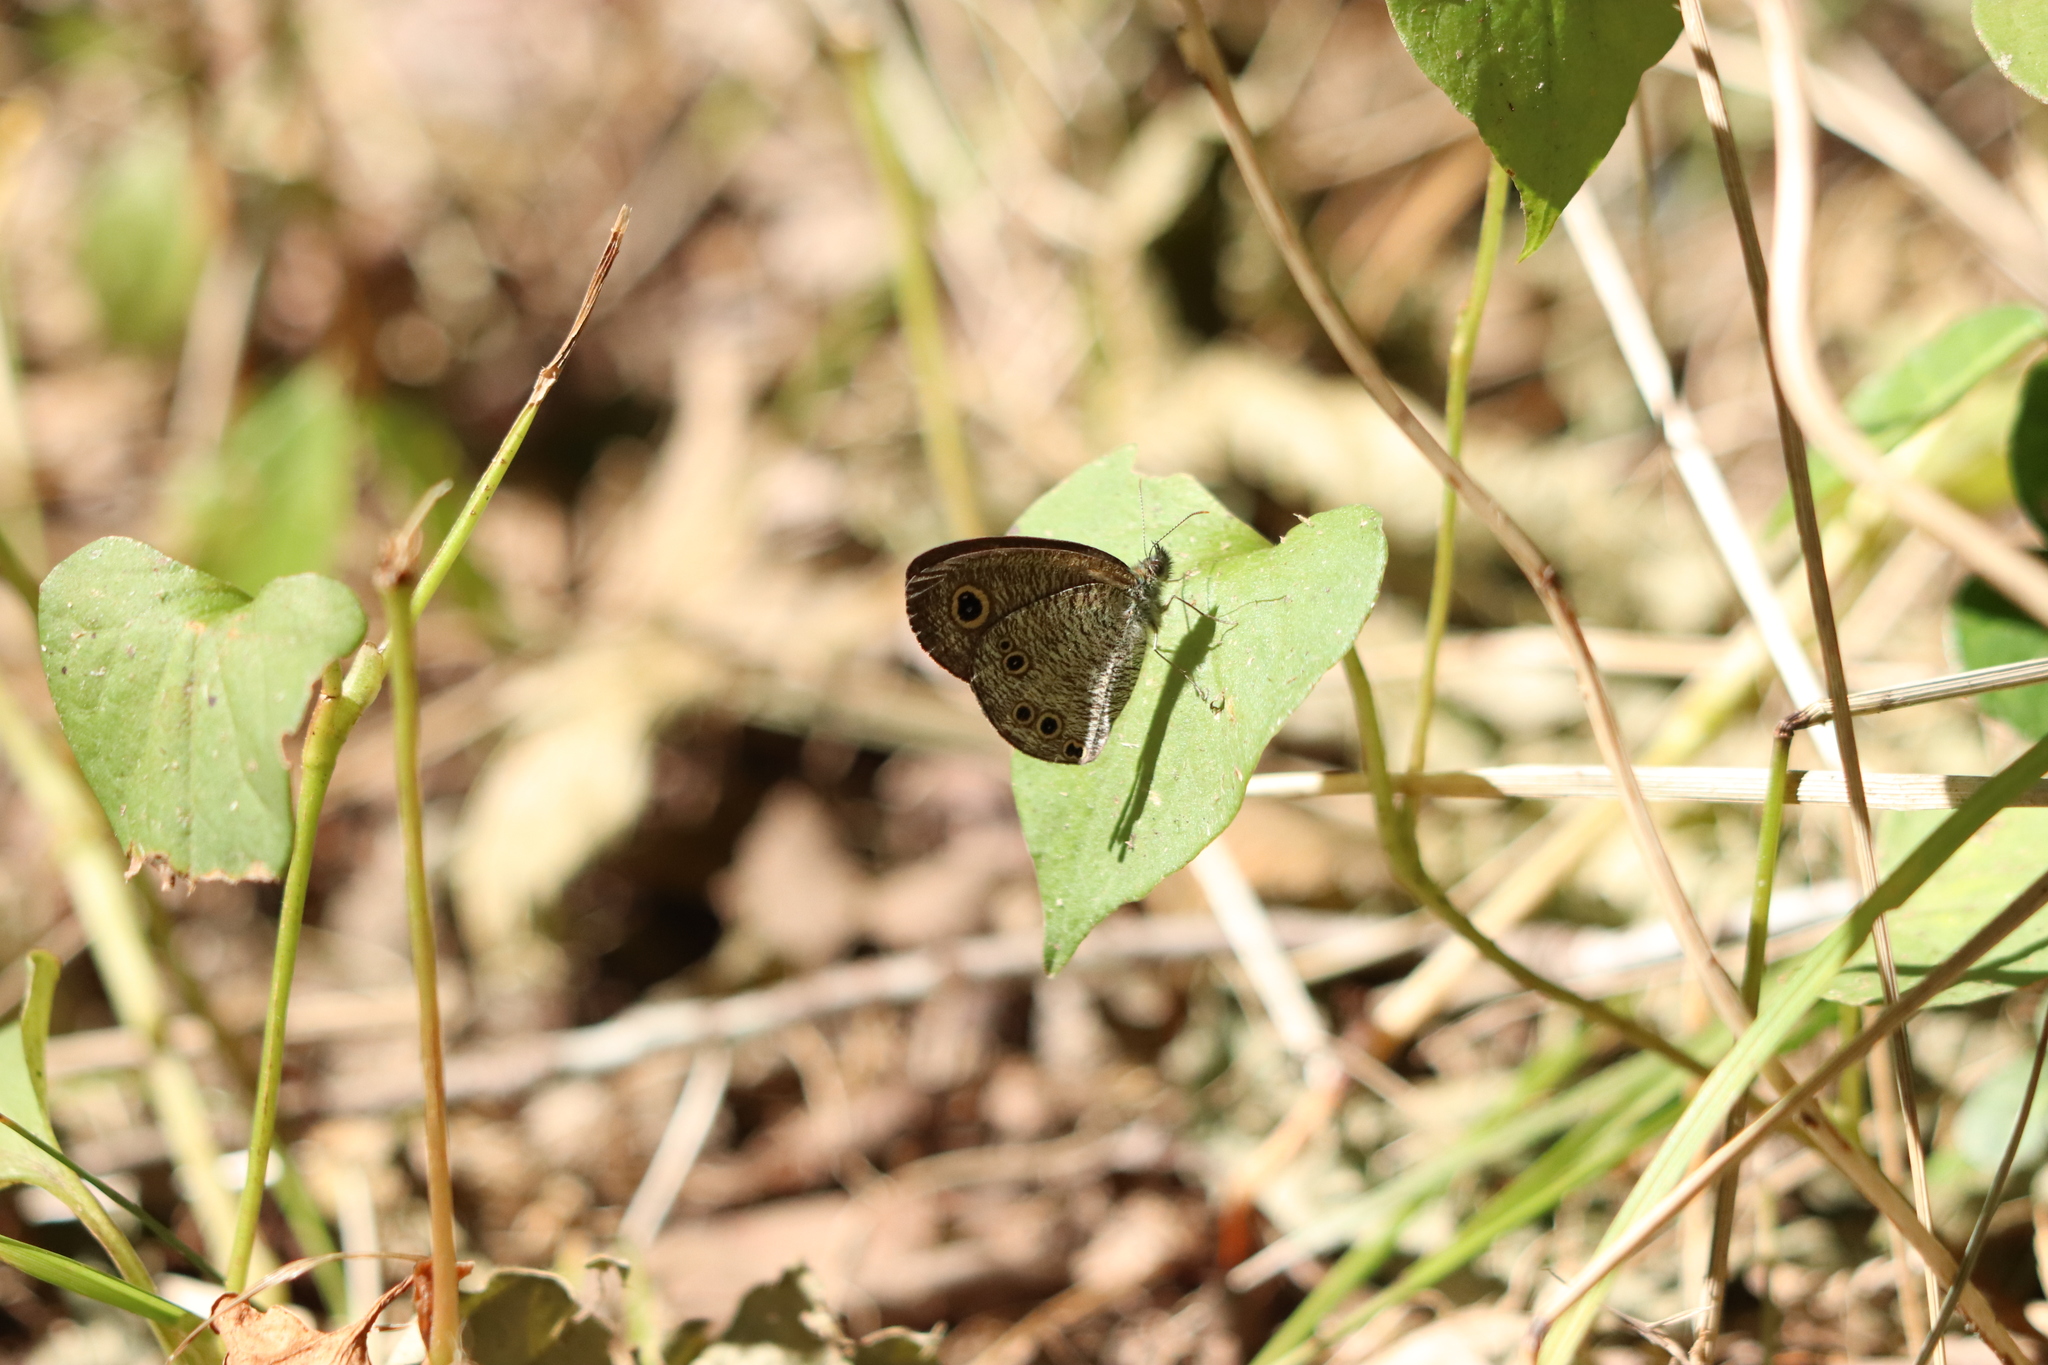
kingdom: Animalia
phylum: Arthropoda
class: Insecta
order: Lepidoptera
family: Nymphalidae
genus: Ypthima
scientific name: Ypthima argus
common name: Common fivering
